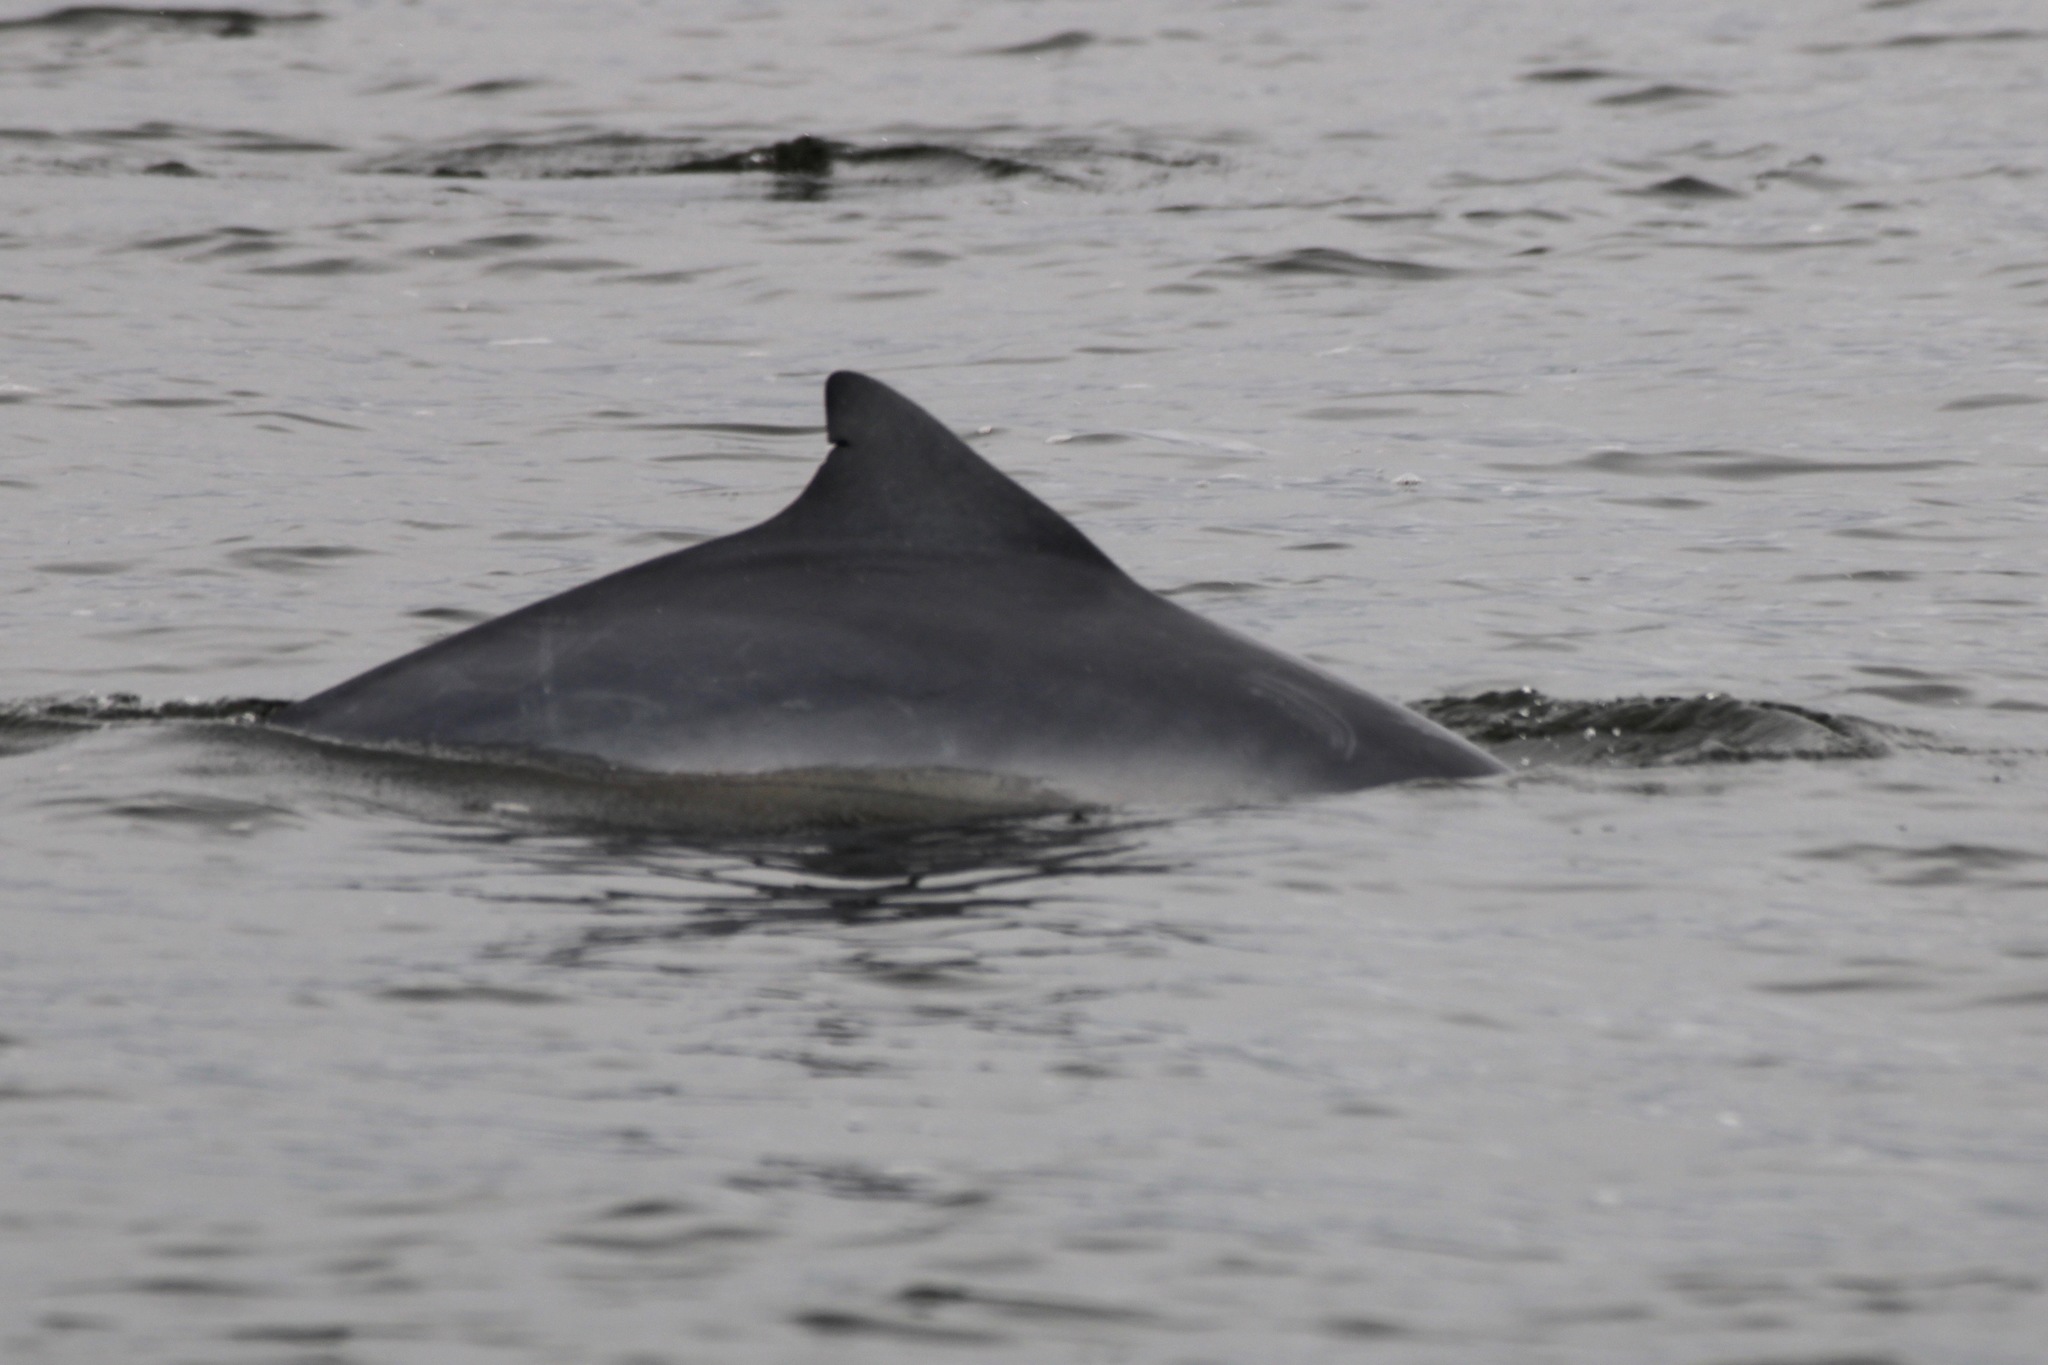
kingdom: Animalia
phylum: Chordata
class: Mammalia
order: Cetacea
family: Delphinidae
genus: Sotalia
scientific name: Sotalia guianensis
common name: Guiana dolphin
